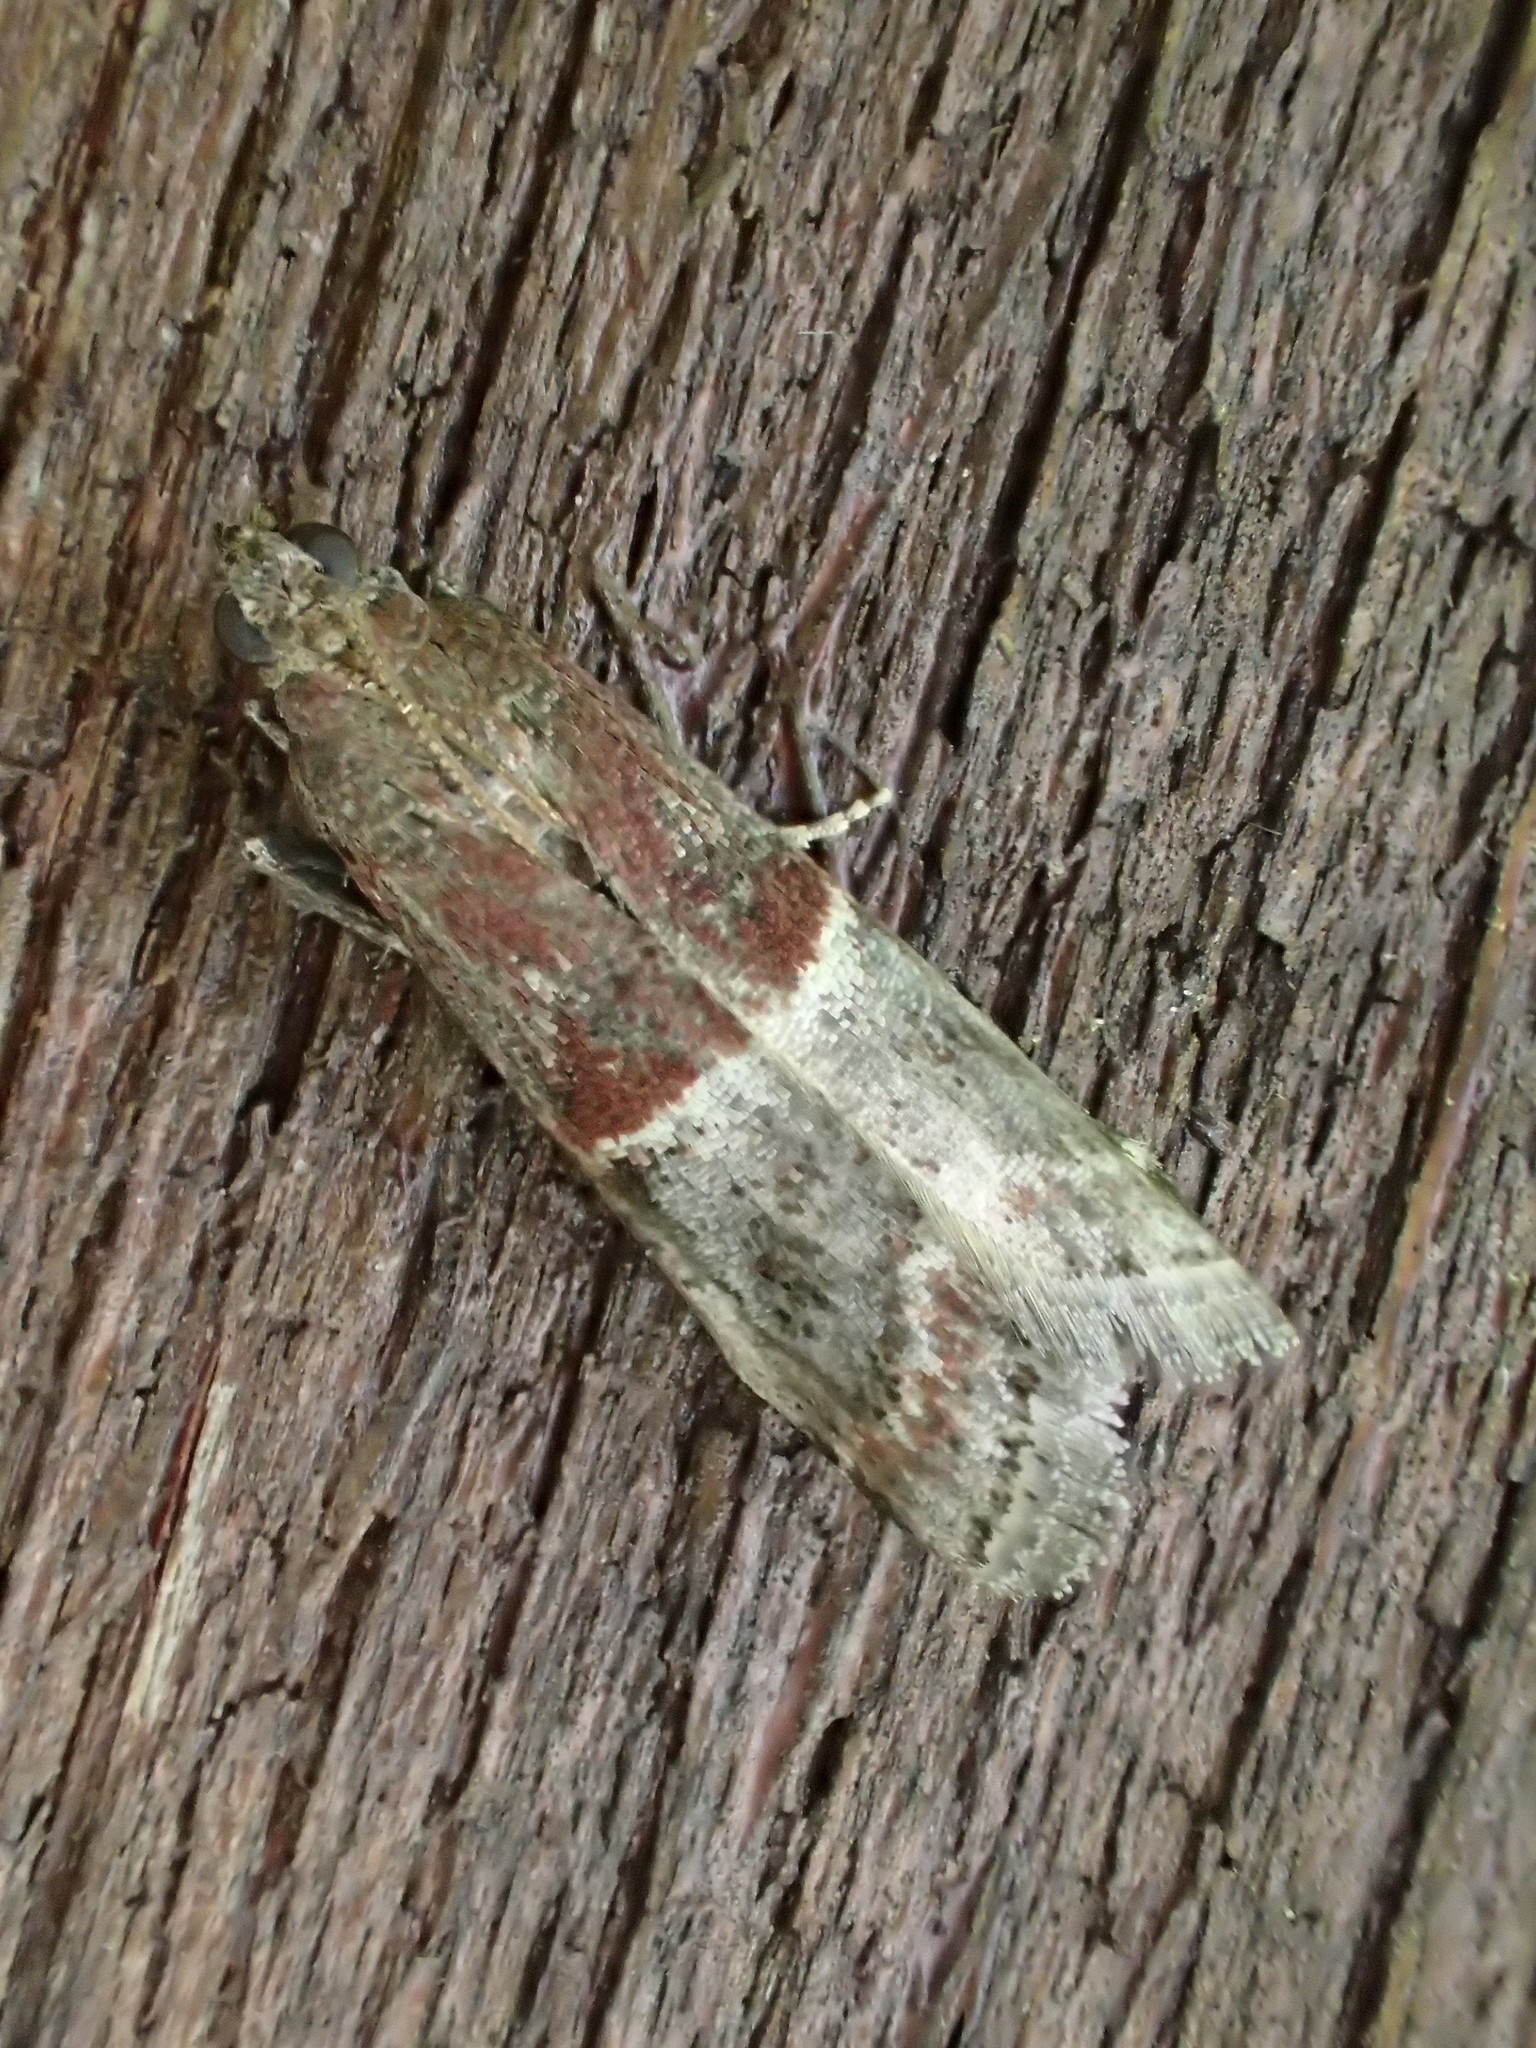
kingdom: Animalia
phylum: Arthropoda
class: Insecta
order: Lepidoptera
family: Pyralidae
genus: Acrobasis
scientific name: Acrobasis marmorea
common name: Marbled knot-horn
